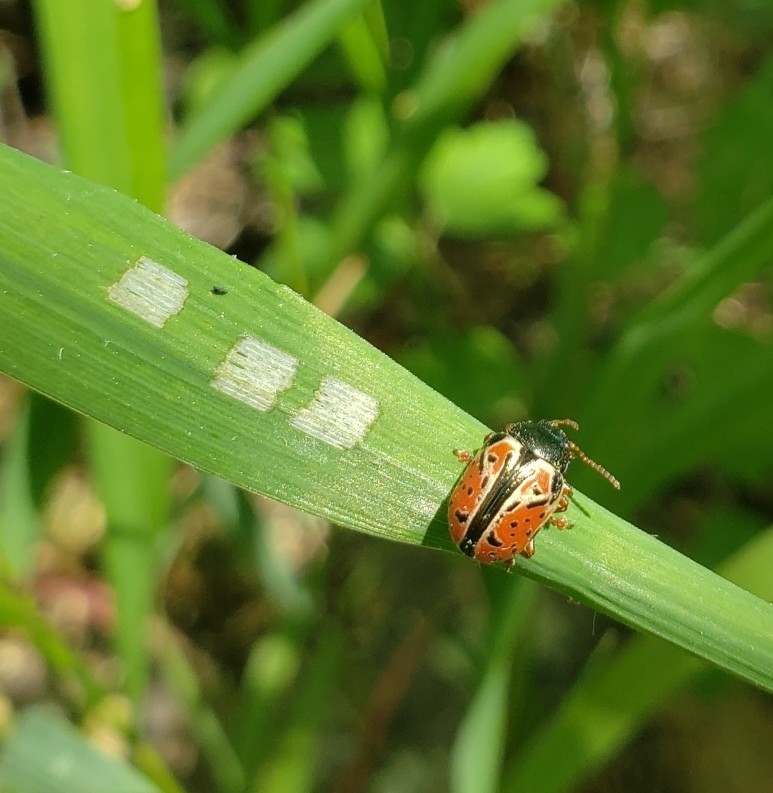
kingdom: Animalia
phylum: Arthropoda
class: Insecta
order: Coleoptera
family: Chrysomelidae
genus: Calligrapha
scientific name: Calligrapha spiraeae
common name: Ninebark calligrapha beetle
